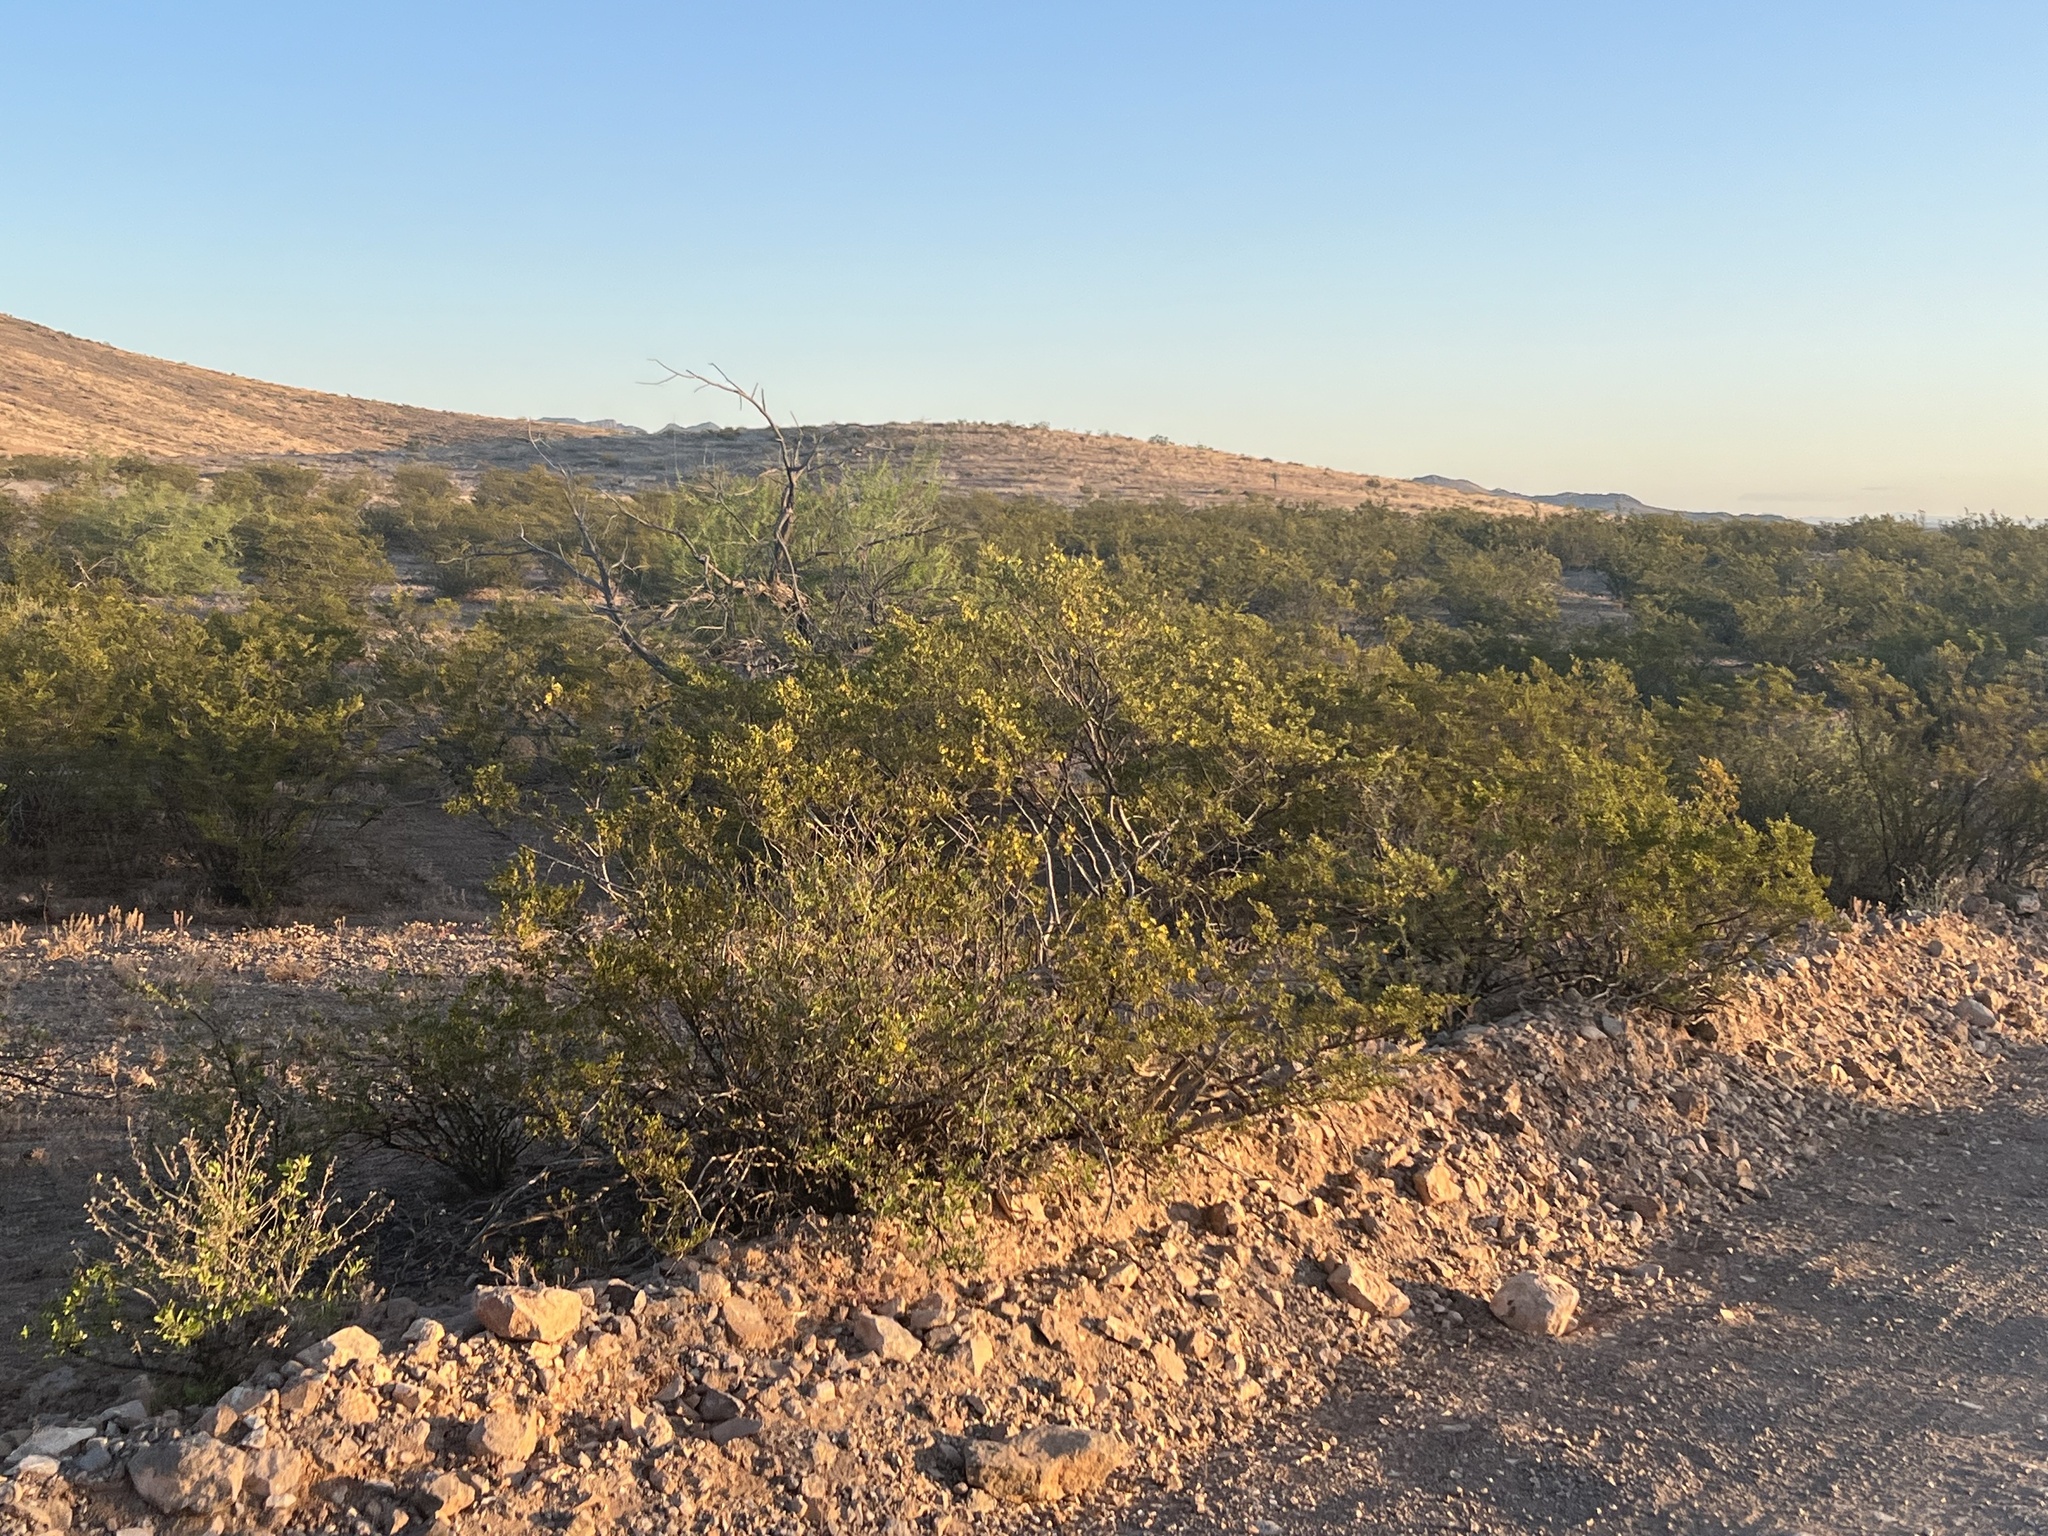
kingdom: Plantae
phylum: Tracheophyta
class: Magnoliopsida
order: Zygophyllales
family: Zygophyllaceae
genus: Larrea
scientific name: Larrea tridentata
